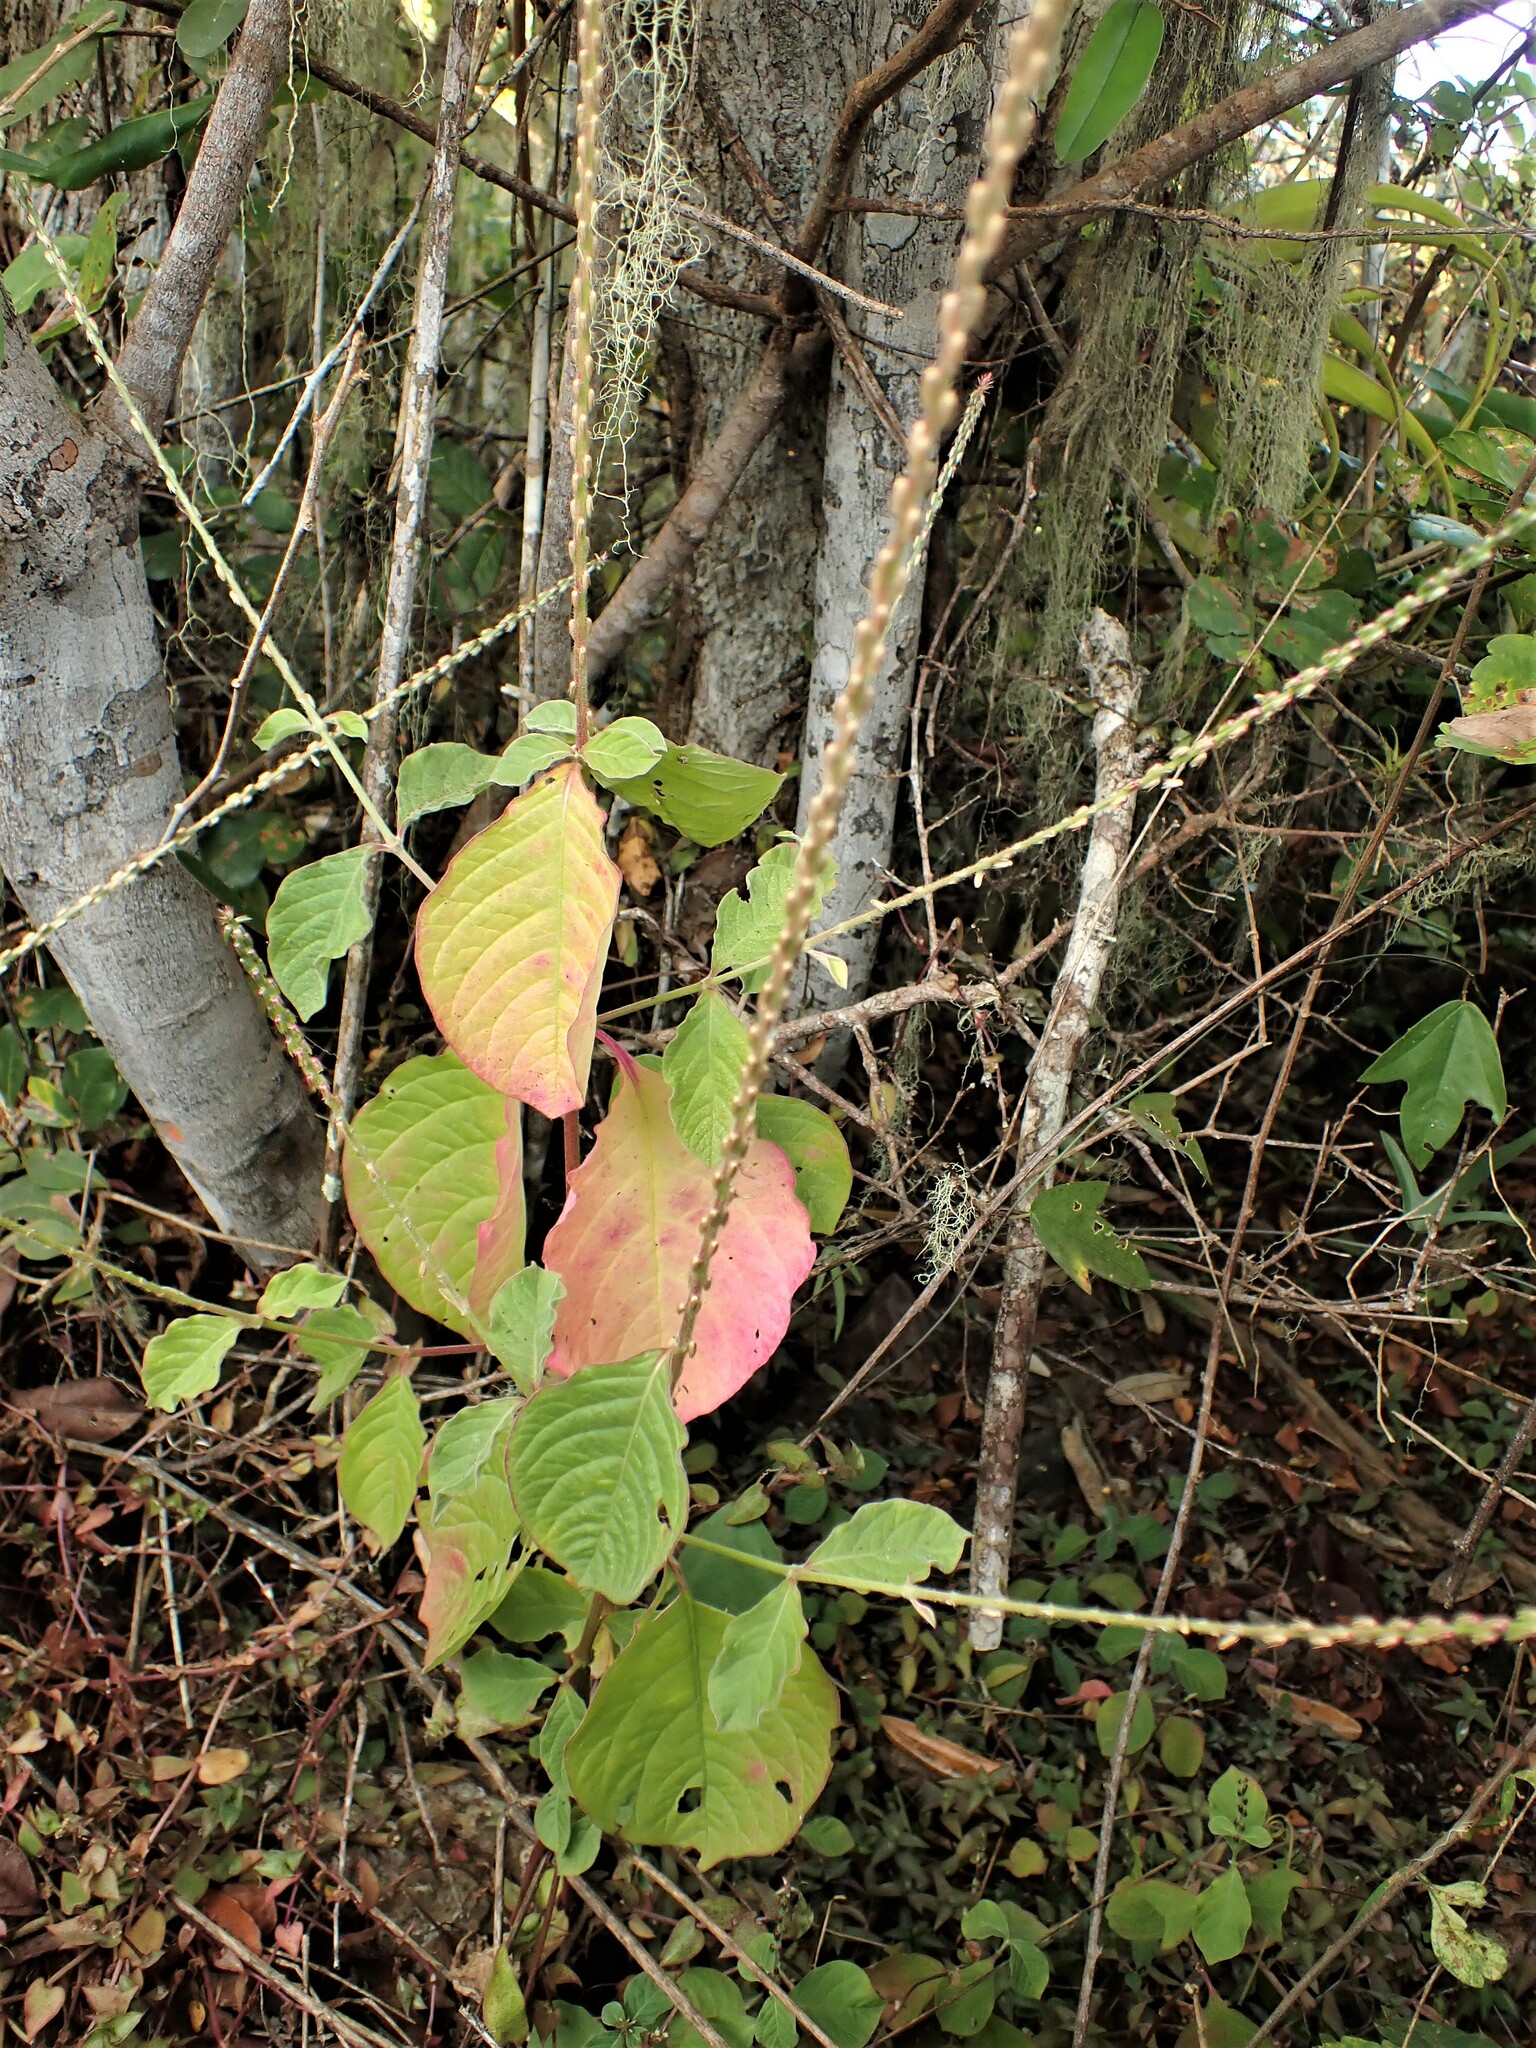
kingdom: Plantae
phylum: Tracheophyta
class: Magnoliopsida
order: Caryophyllales
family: Amaranthaceae
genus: Achyranthes
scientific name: Achyranthes aspera
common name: Devil's horsewhip
